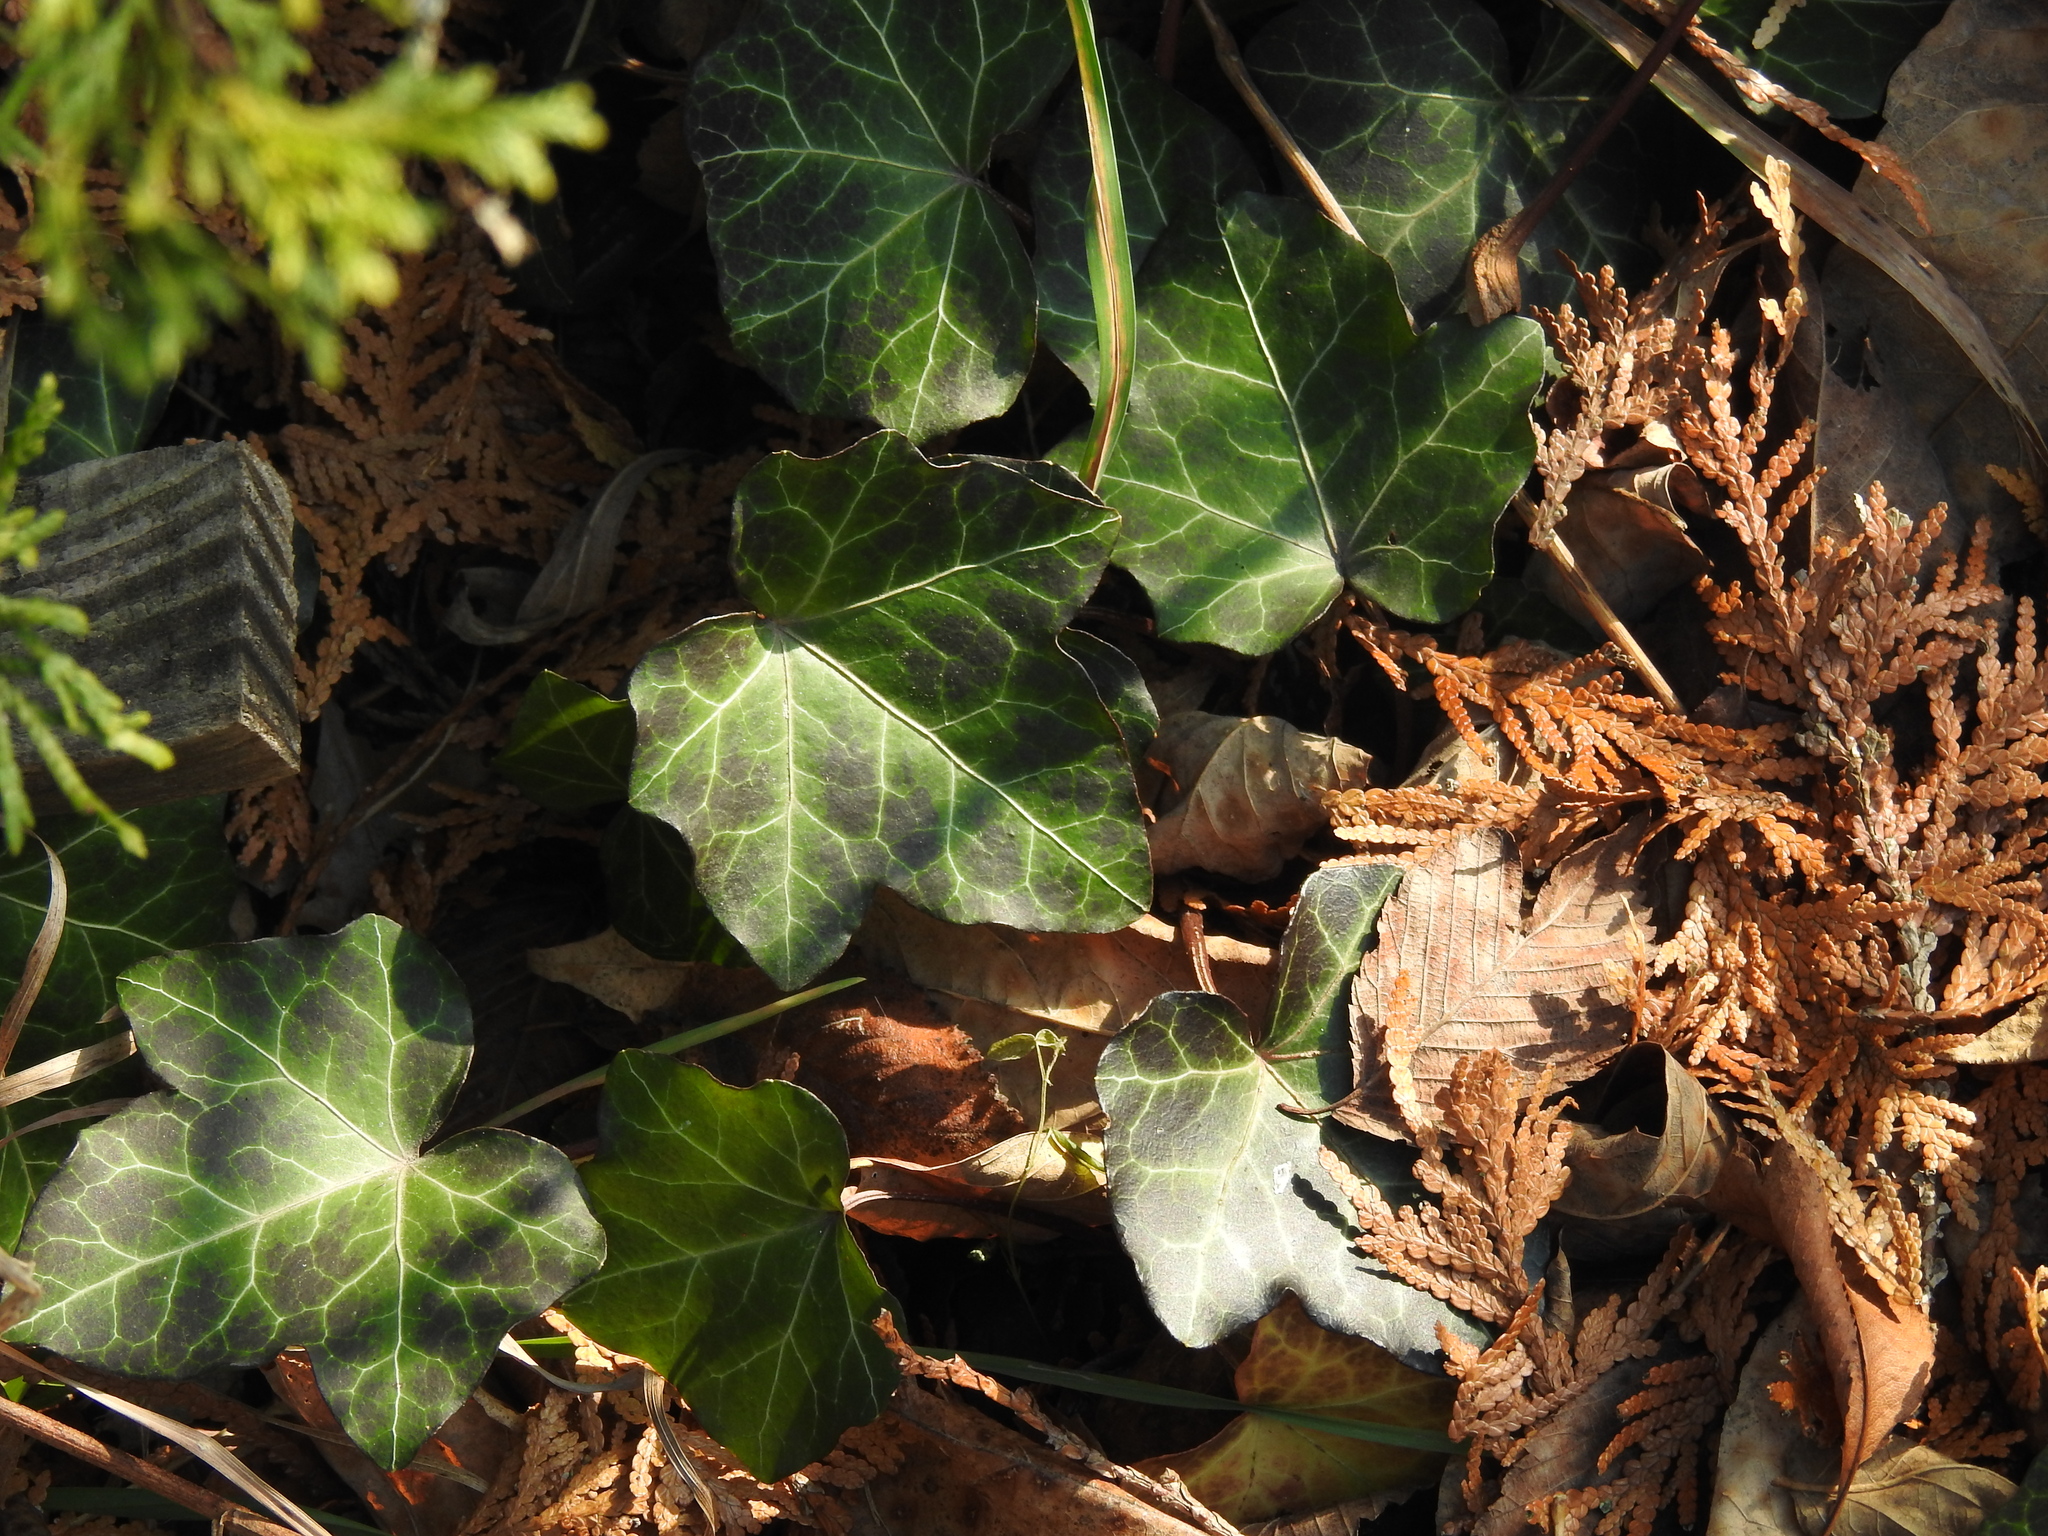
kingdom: Plantae
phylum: Tracheophyta
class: Magnoliopsida
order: Apiales
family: Araliaceae
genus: Hedera
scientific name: Hedera helix
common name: Ivy
